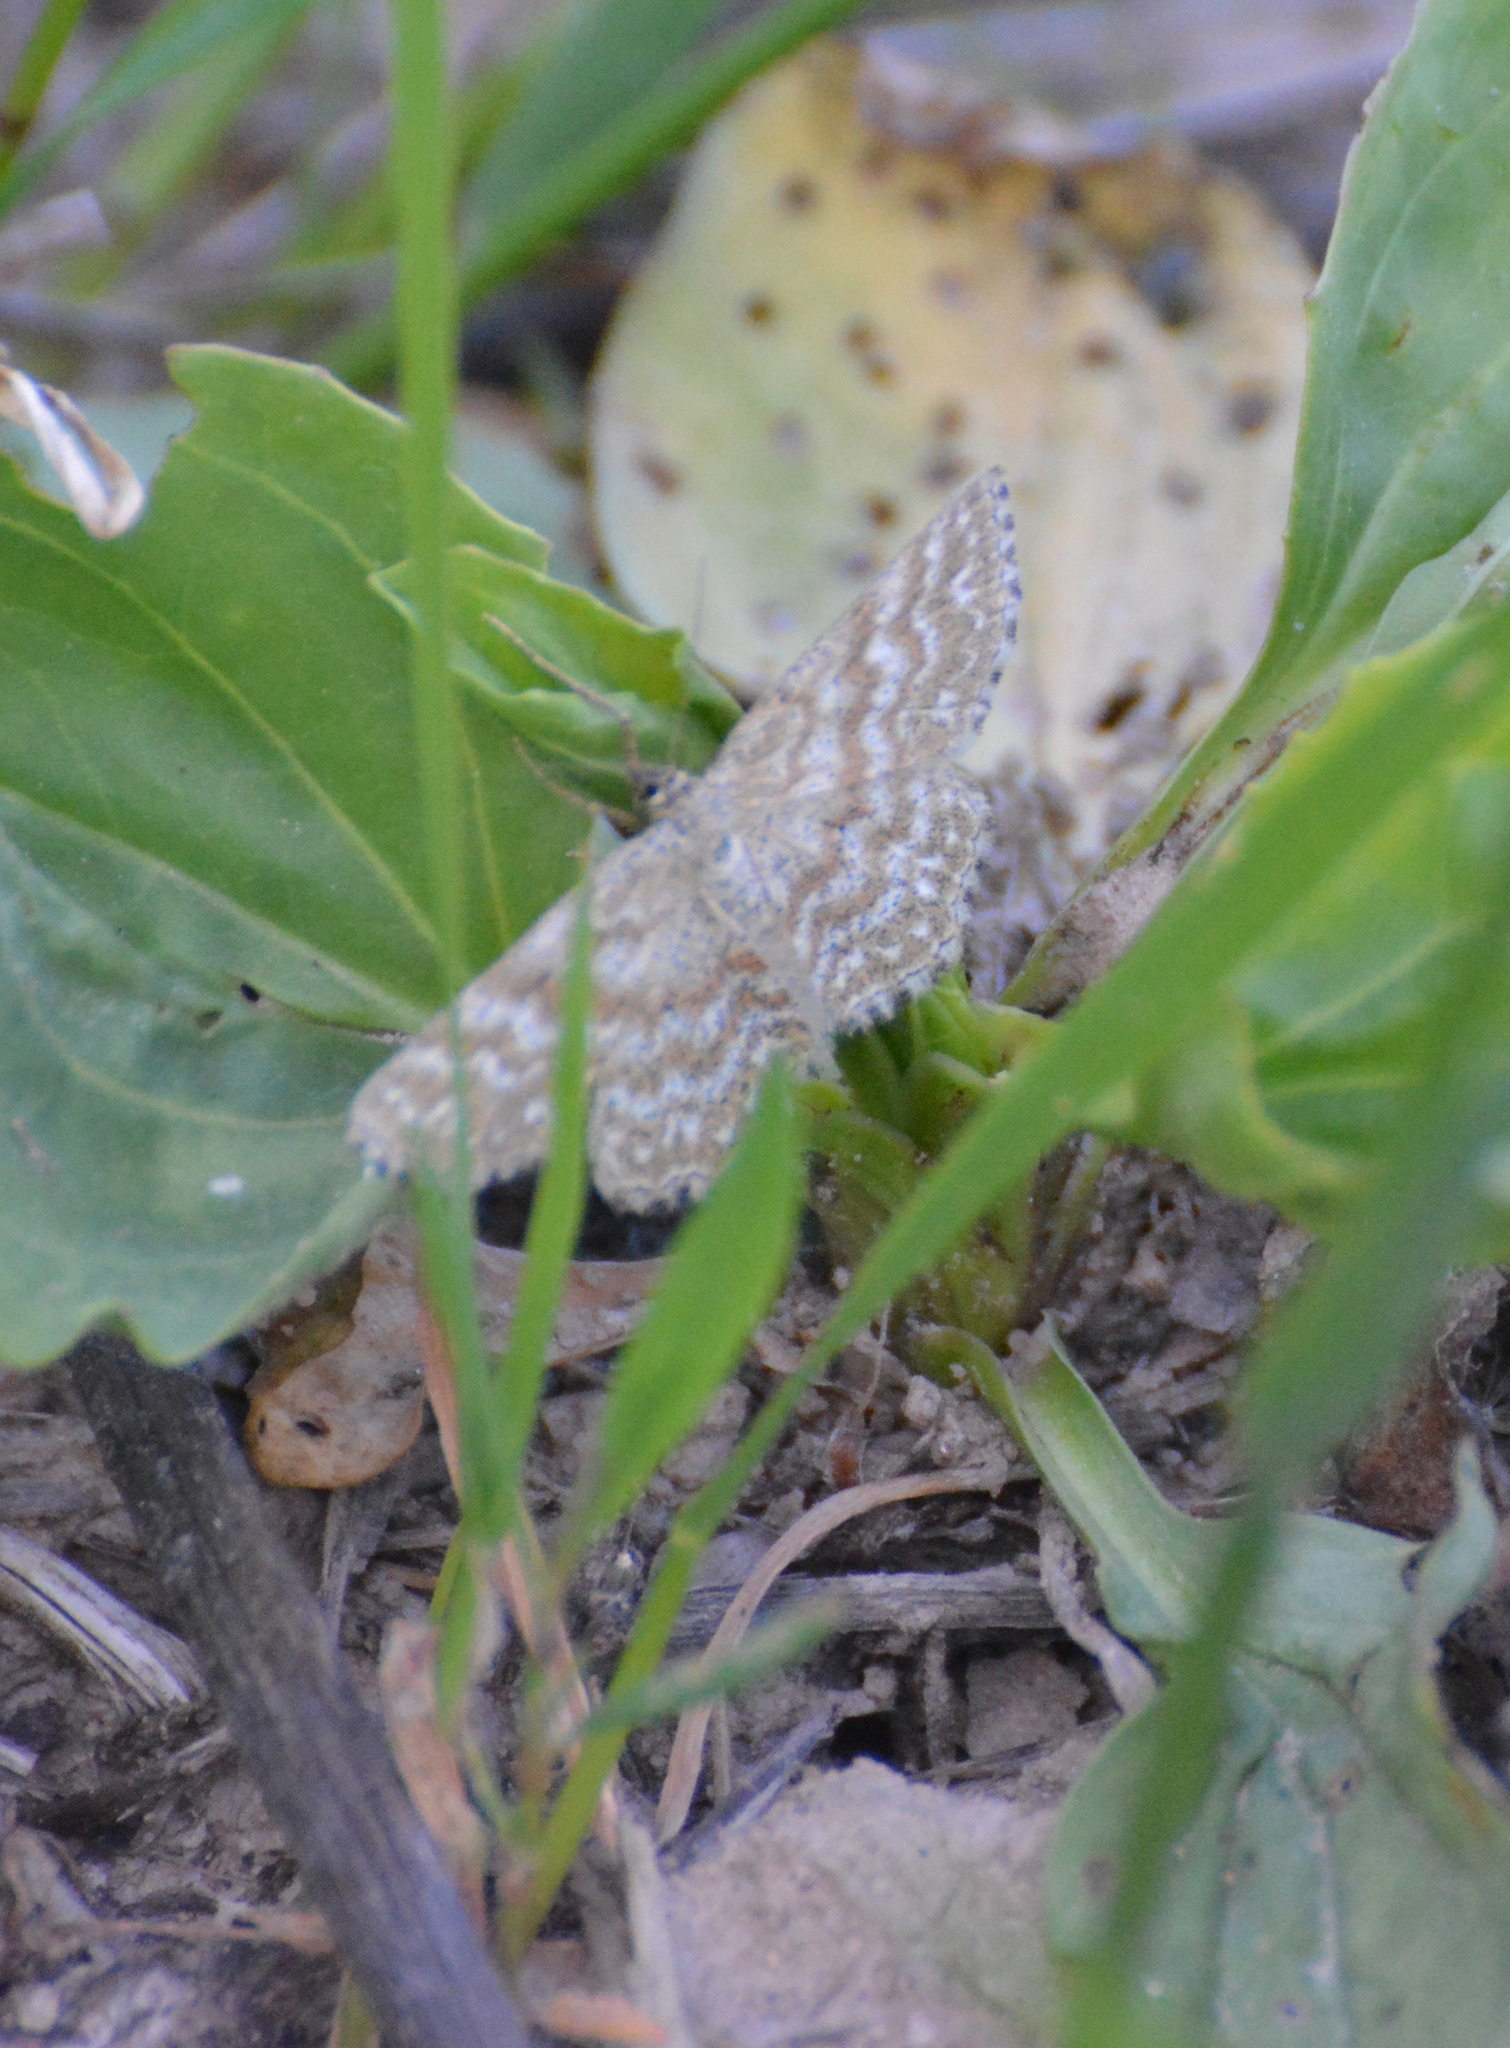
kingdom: Animalia
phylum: Arthropoda
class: Insecta
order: Lepidoptera
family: Geometridae
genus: Scopula
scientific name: Scopula immorata
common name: Lewes wave
